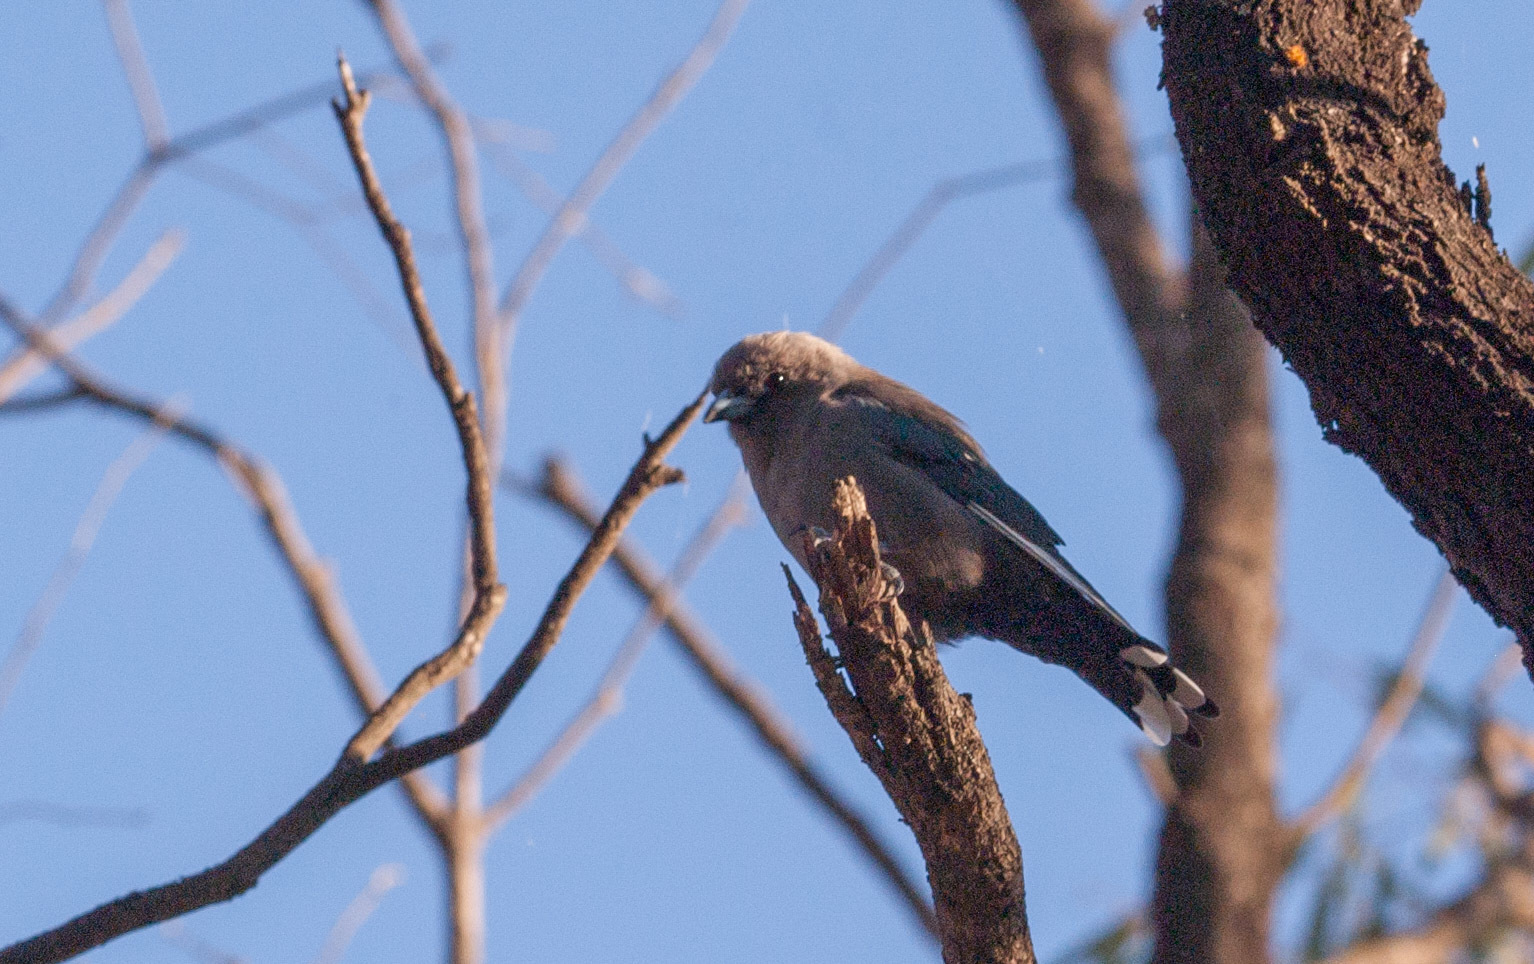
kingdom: Animalia
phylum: Chordata
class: Aves
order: Passeriformes
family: Artamidae
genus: Artamus
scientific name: Artamus cyanopterus
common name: Dusky woodswallow
